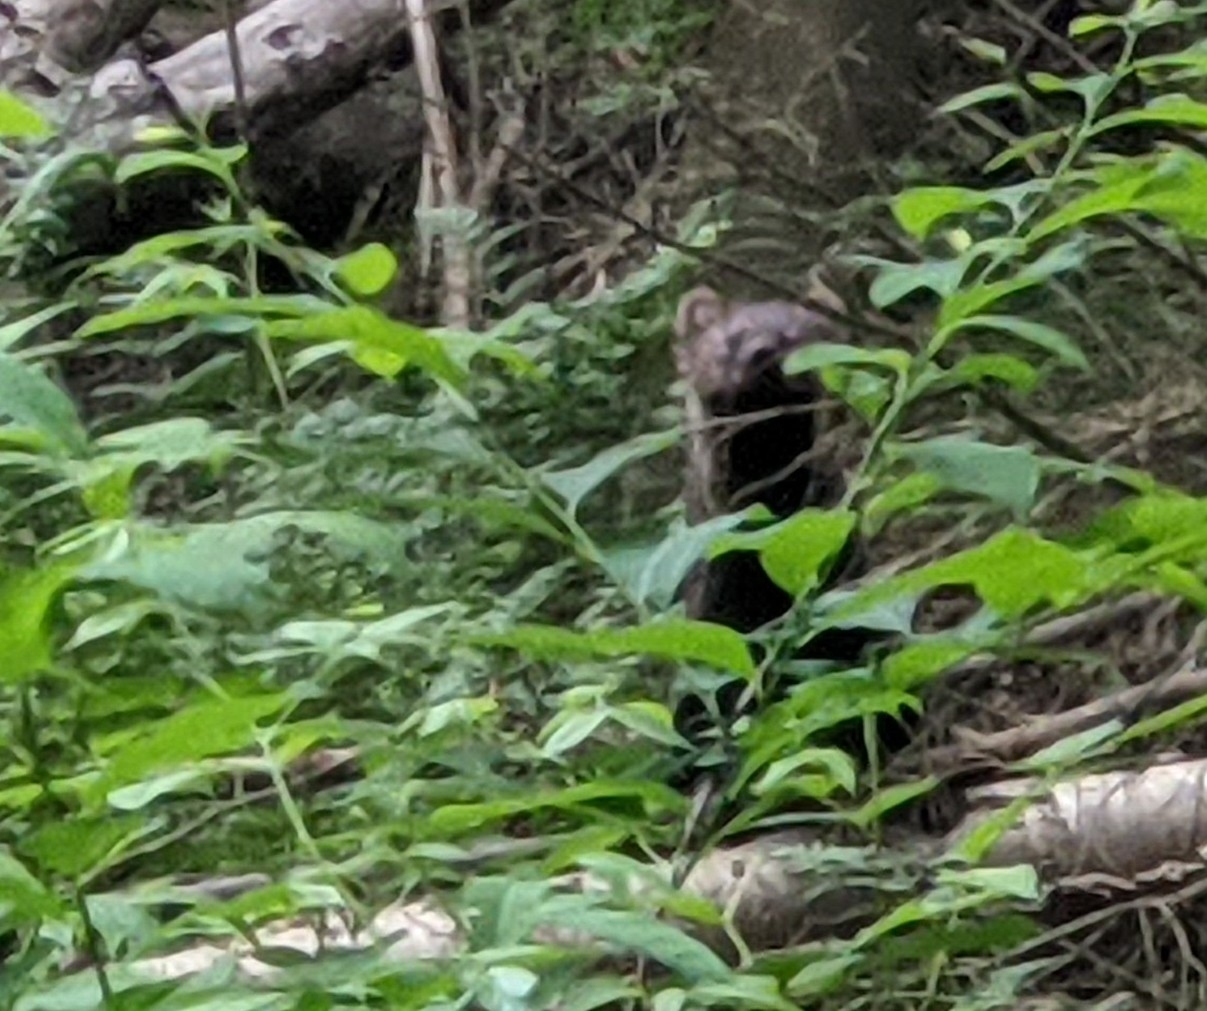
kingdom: Animalia
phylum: Chordata
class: Mammalia
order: Carnivora
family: Mustelidae
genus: Pekania
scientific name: Pekania pennanti
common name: Fisher
